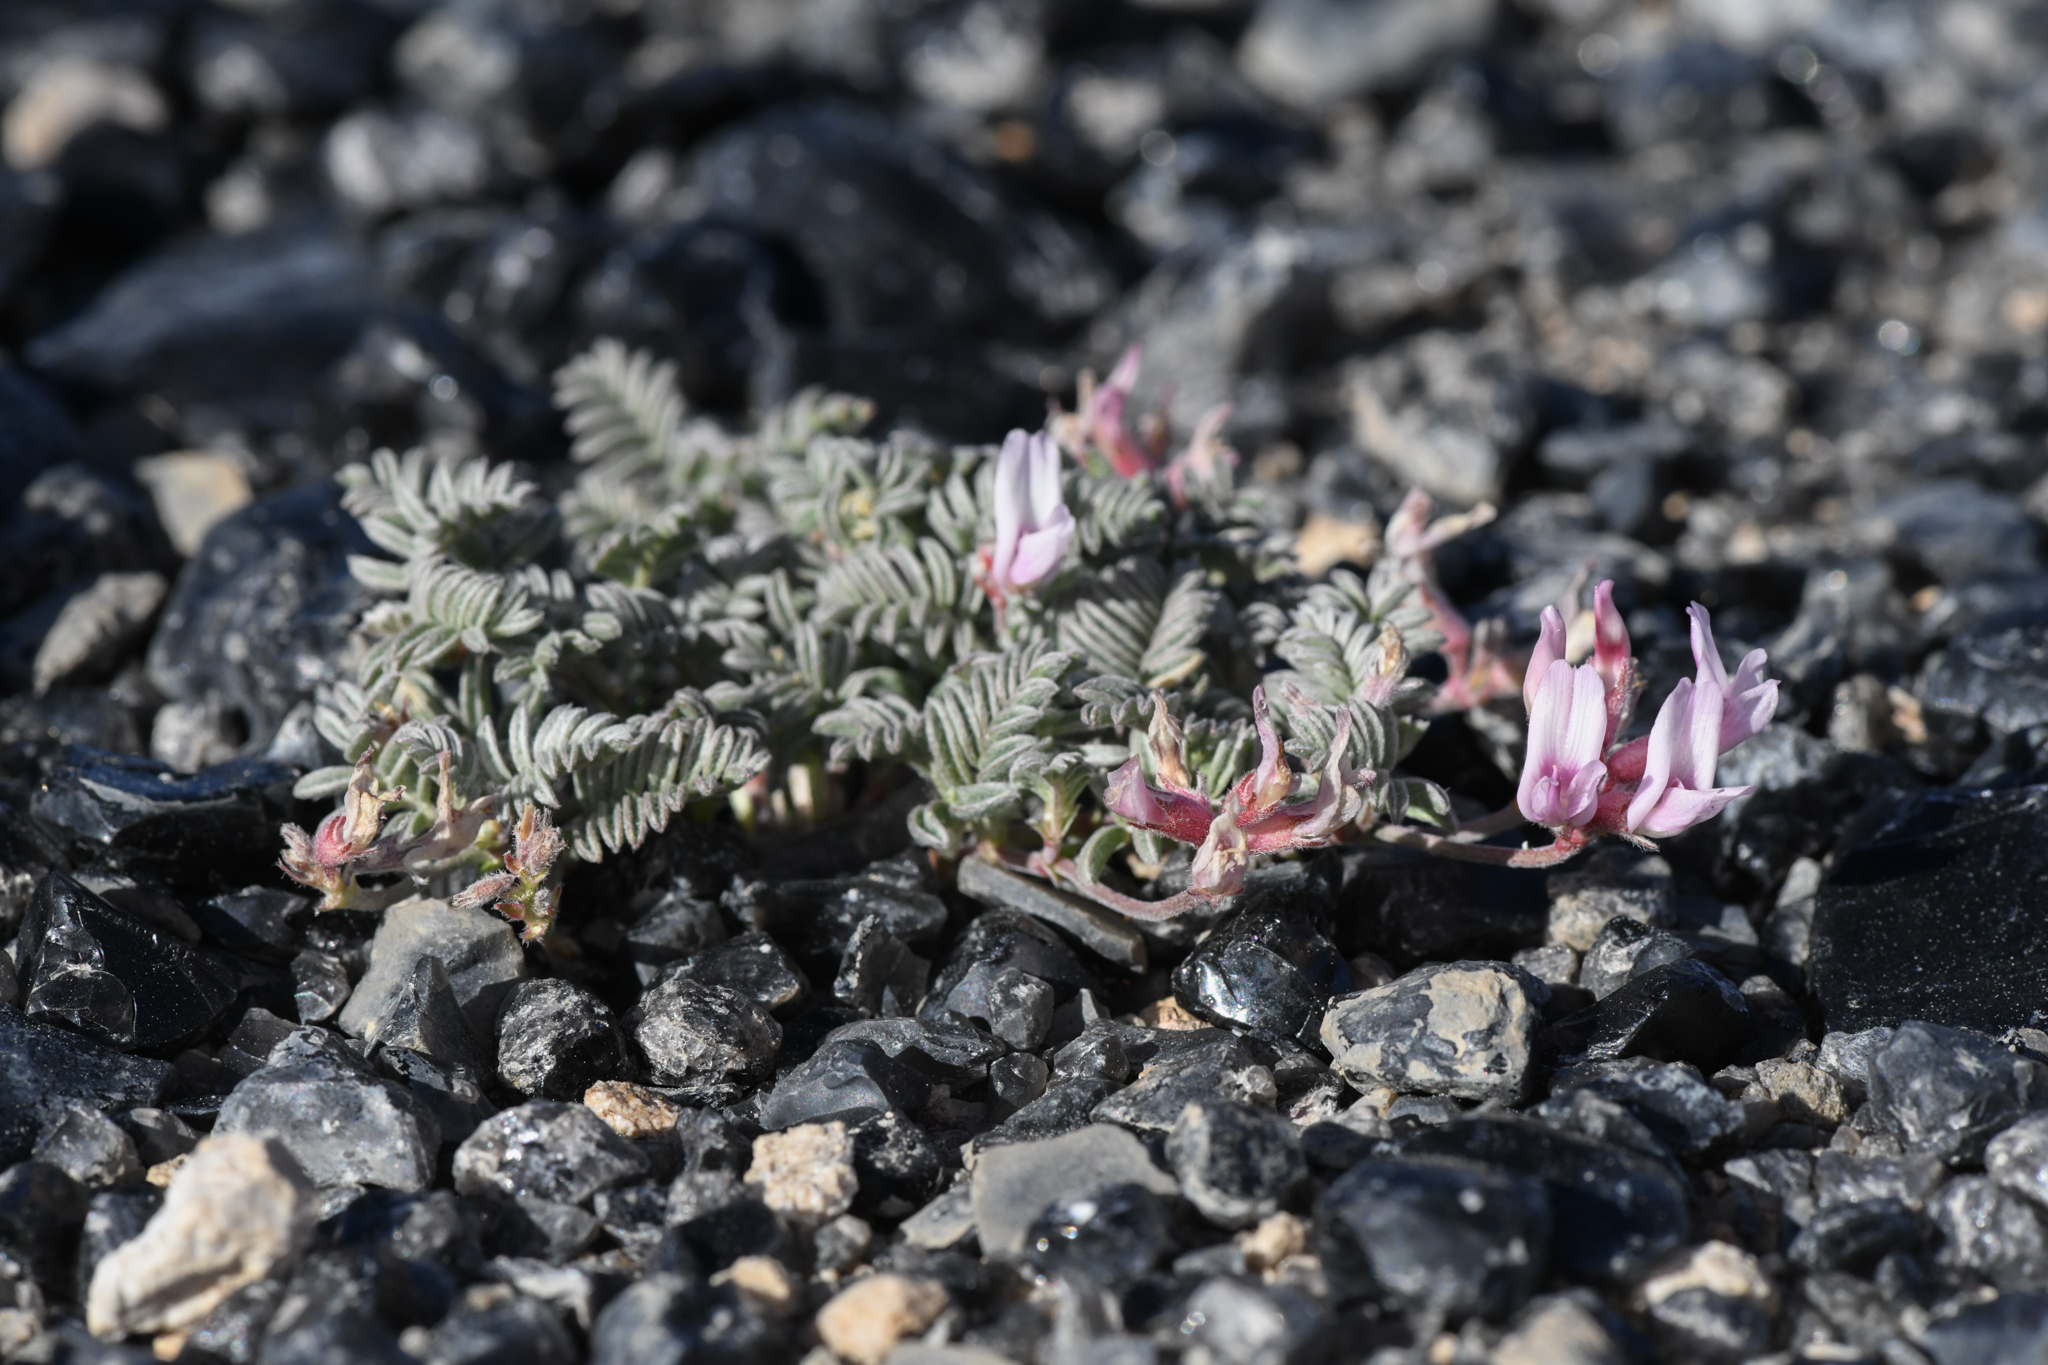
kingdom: Plantae
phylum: Tracheophyta
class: Magnoliopsida
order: Fabales
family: Fabaceae
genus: Astragalus
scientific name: Astragalus monoensis
